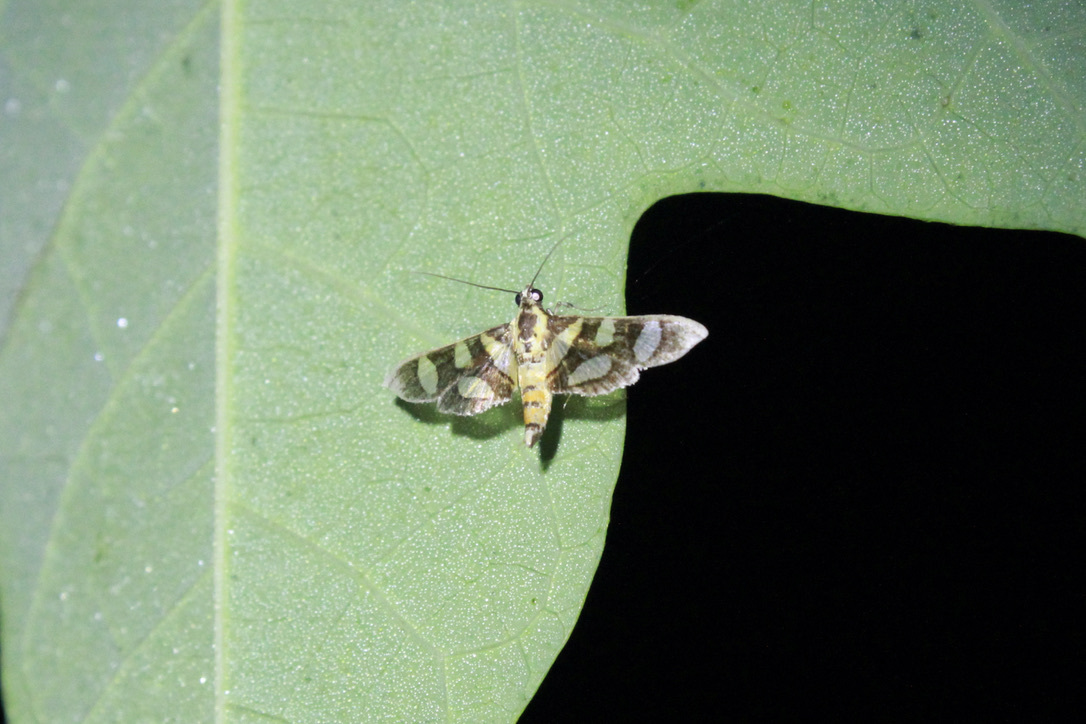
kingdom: Animalia
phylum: Arthropoda
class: Insecta
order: Lepidoptera
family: Crambidae
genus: Syngamia
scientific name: Syngamia florella
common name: Orange-spotted flower moth
